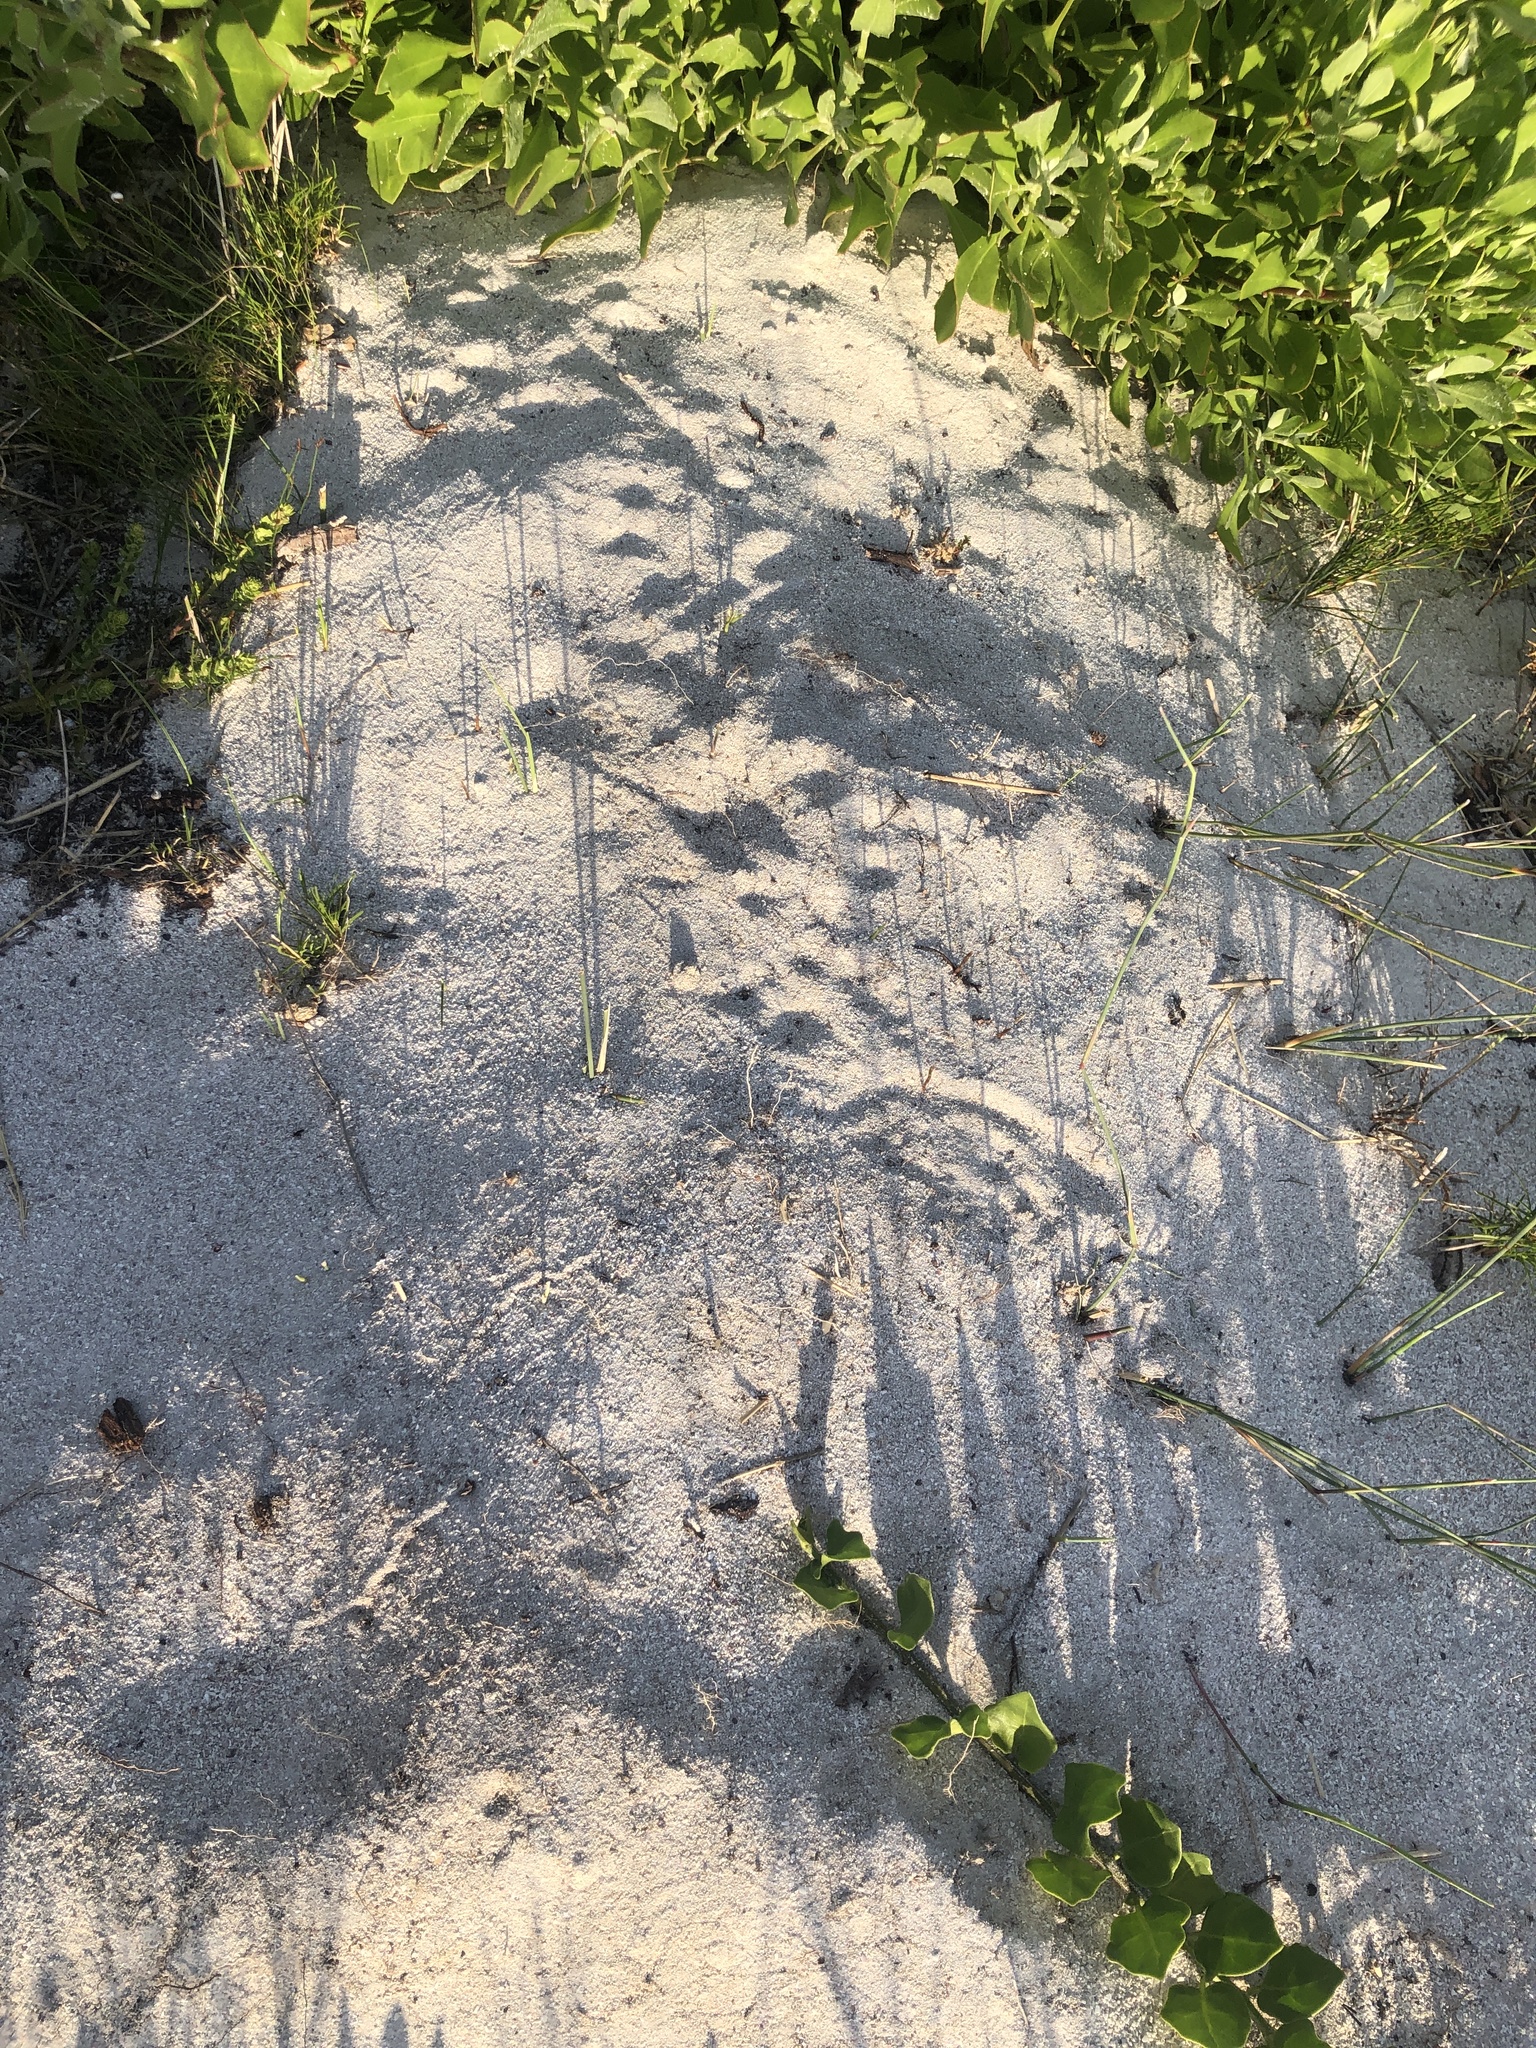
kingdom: Animalia
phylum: Chordata
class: Mammalia
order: Carnivora
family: Felidae
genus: Caracal
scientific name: Caracal caracal
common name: Caracal
